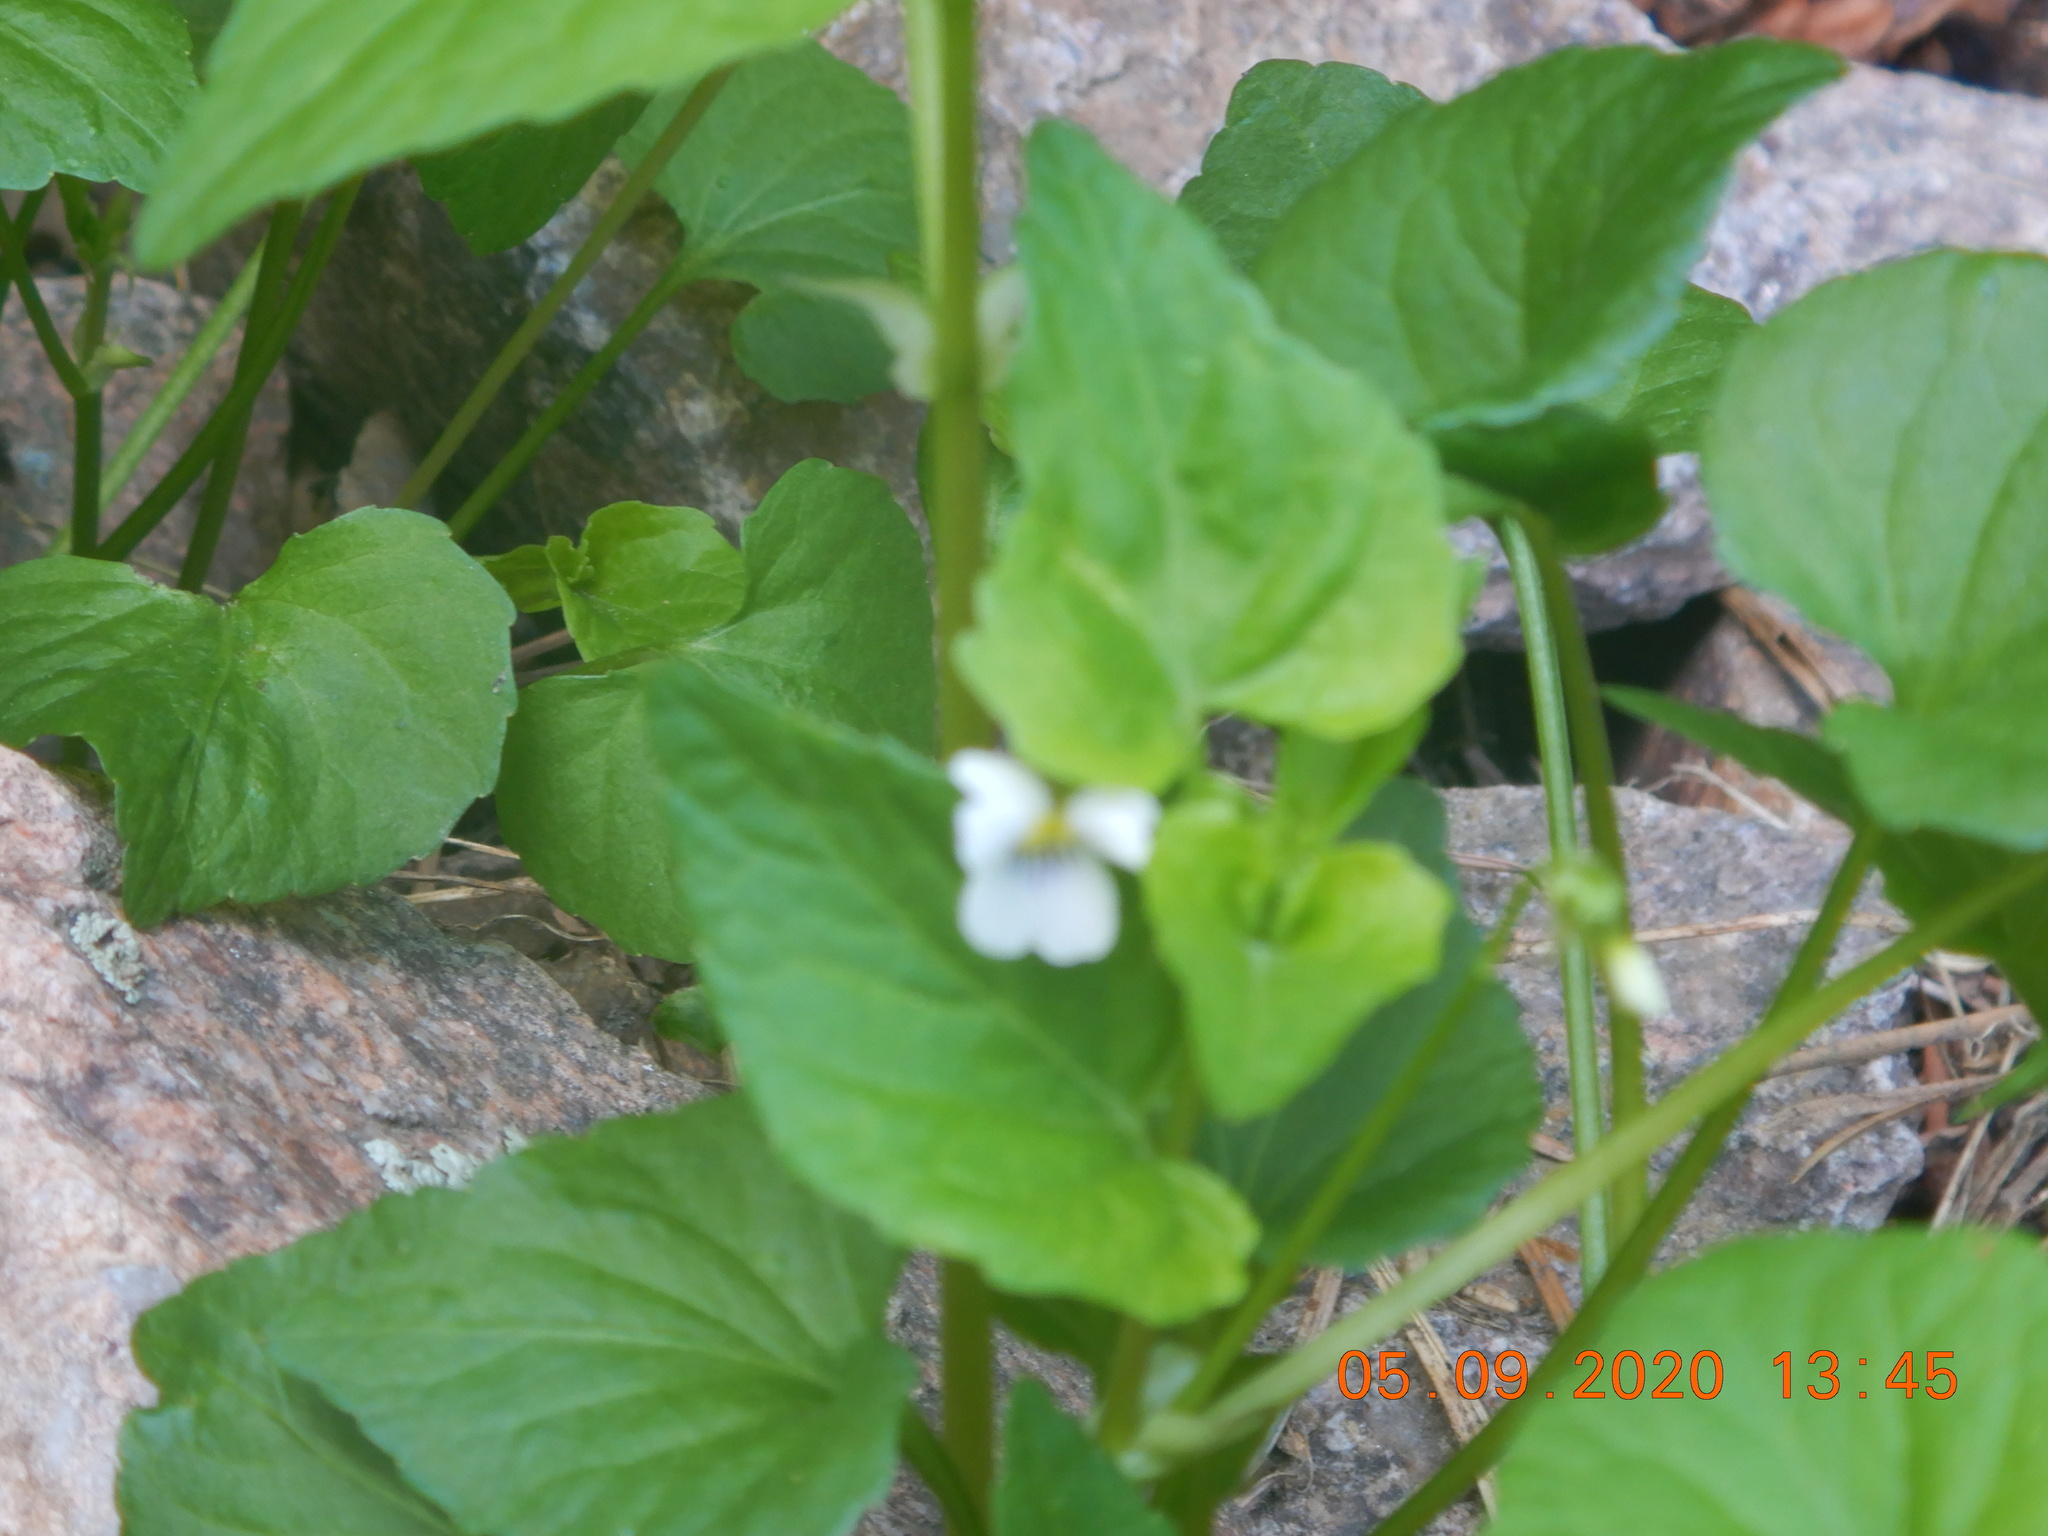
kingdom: Plantae
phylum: Tracheophyta
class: Magnoliopsida
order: Malpighiales
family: Violaceae
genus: Viola
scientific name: Viola canadensis
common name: Canada violet
